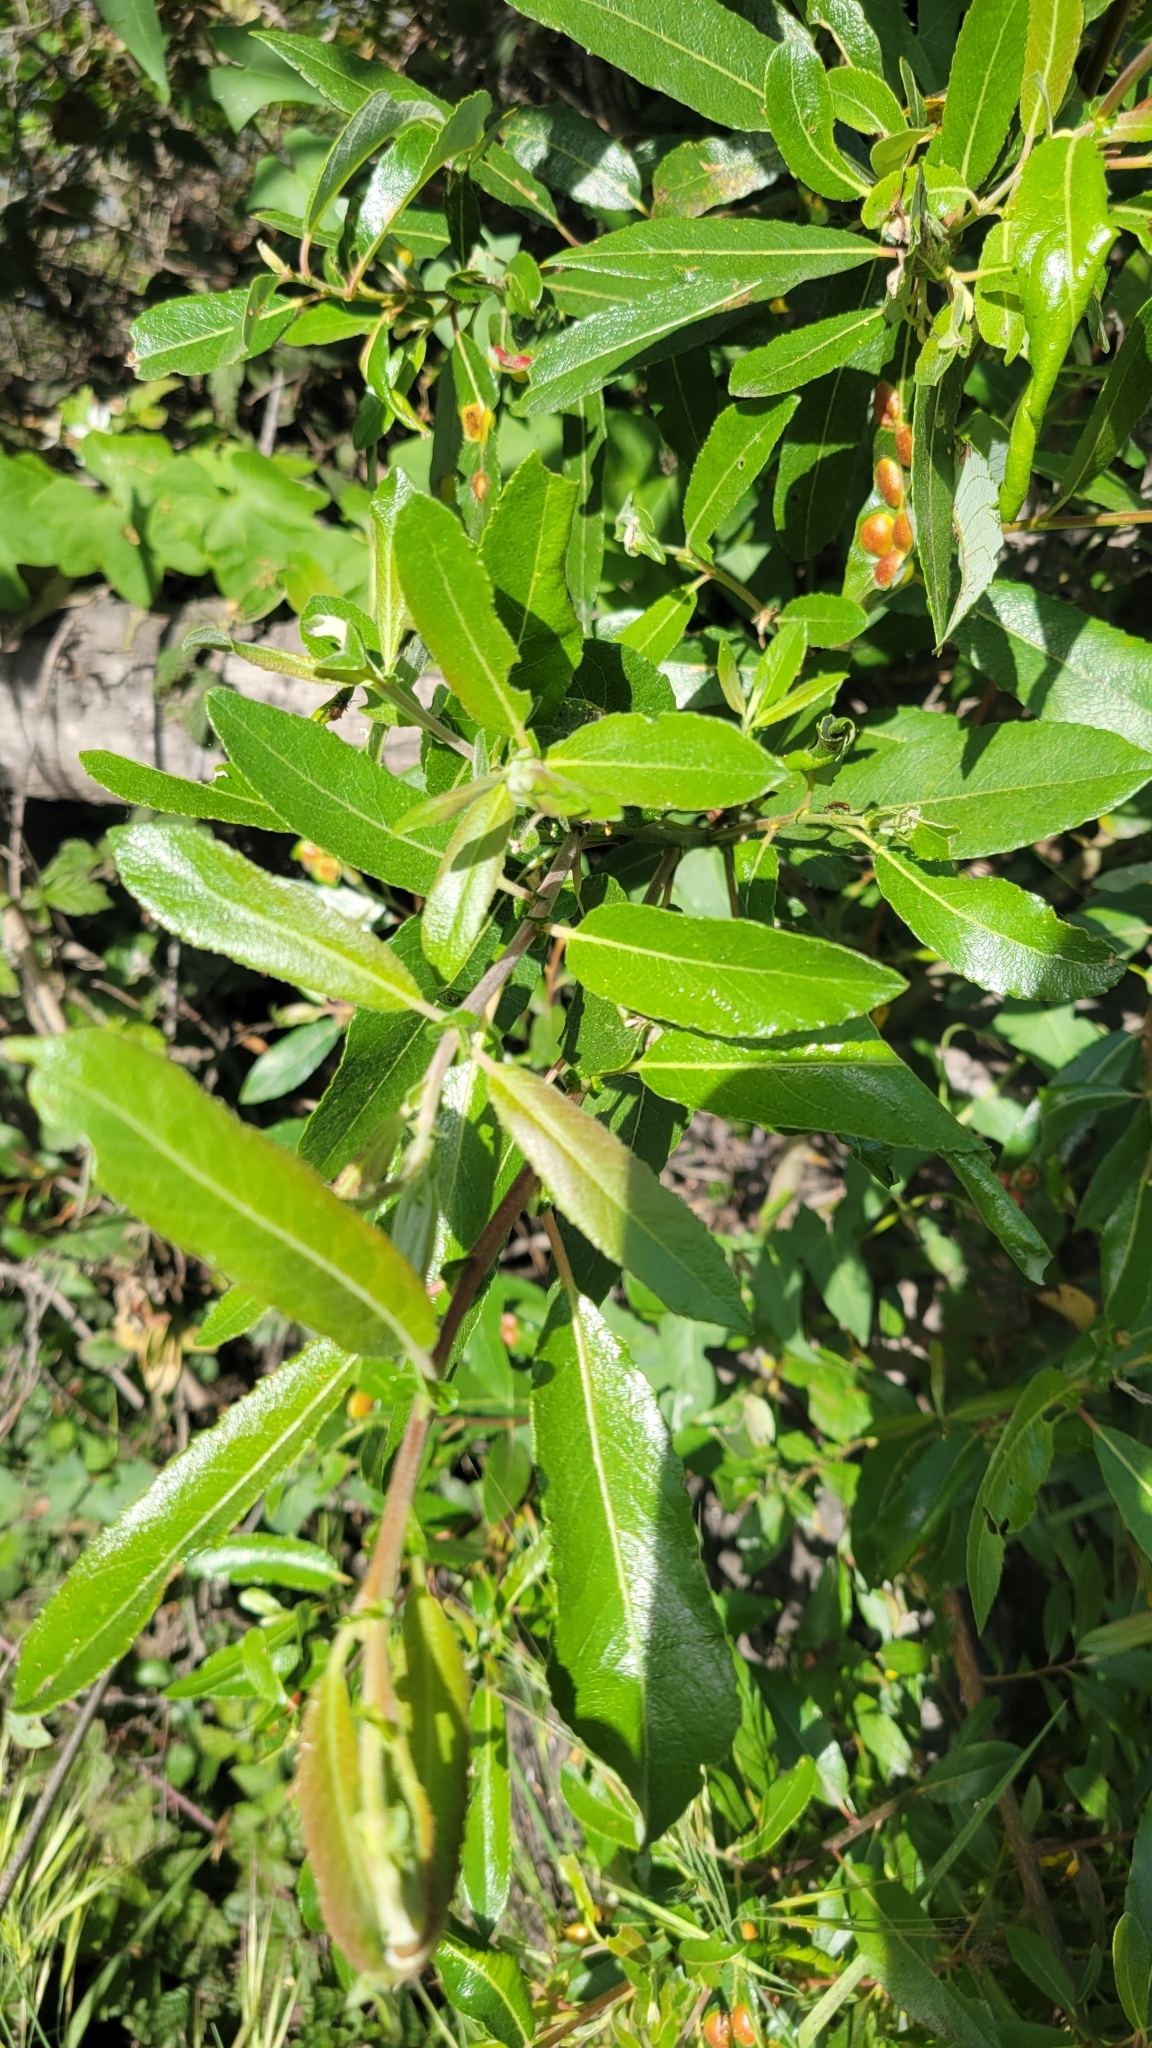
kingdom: Plantae
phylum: Tracheophyta
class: Magnoliopsida
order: Malpighiales
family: Salicaceae
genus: Salix
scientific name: Salix lasiolepis
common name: Arroyo willow
